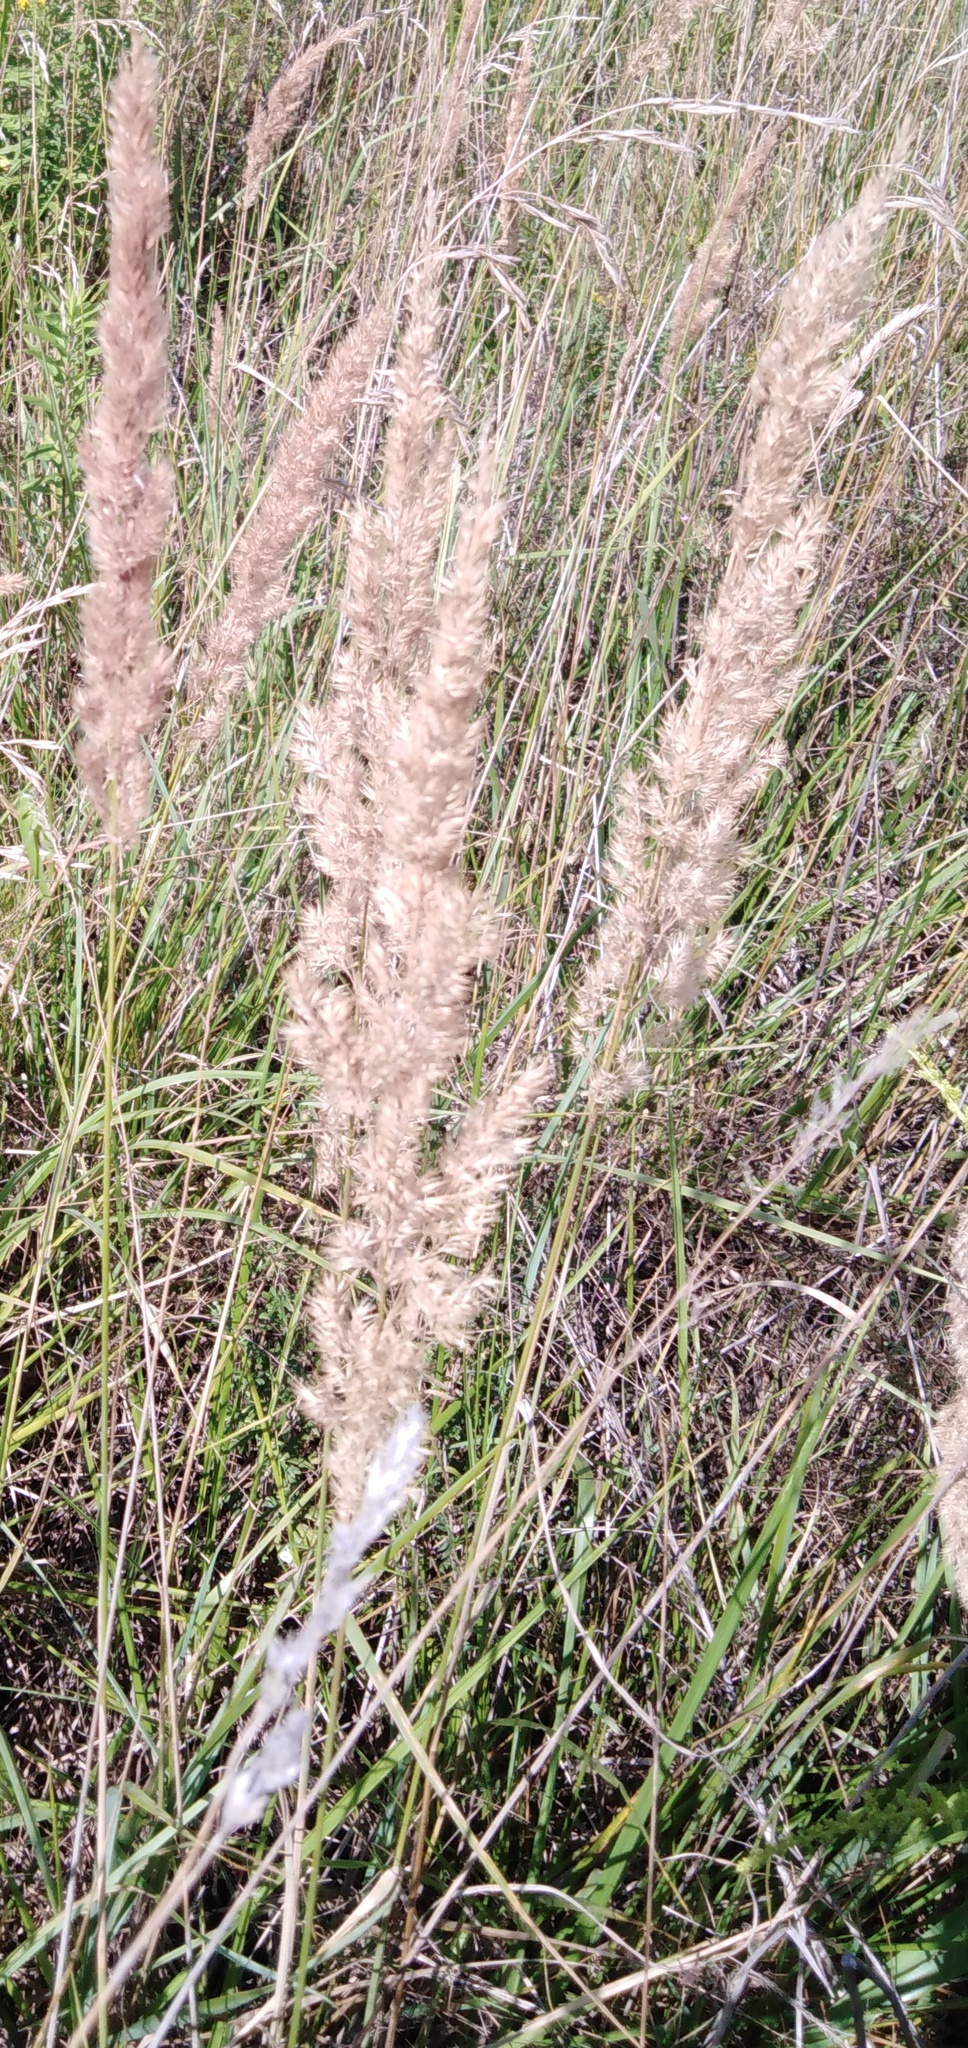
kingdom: Plantae
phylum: Tracheophyta
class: Liliopsida
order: Poales
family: Poaceae
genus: Calamagrostis
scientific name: Calamagrostis epigejos
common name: Wood small-reed
